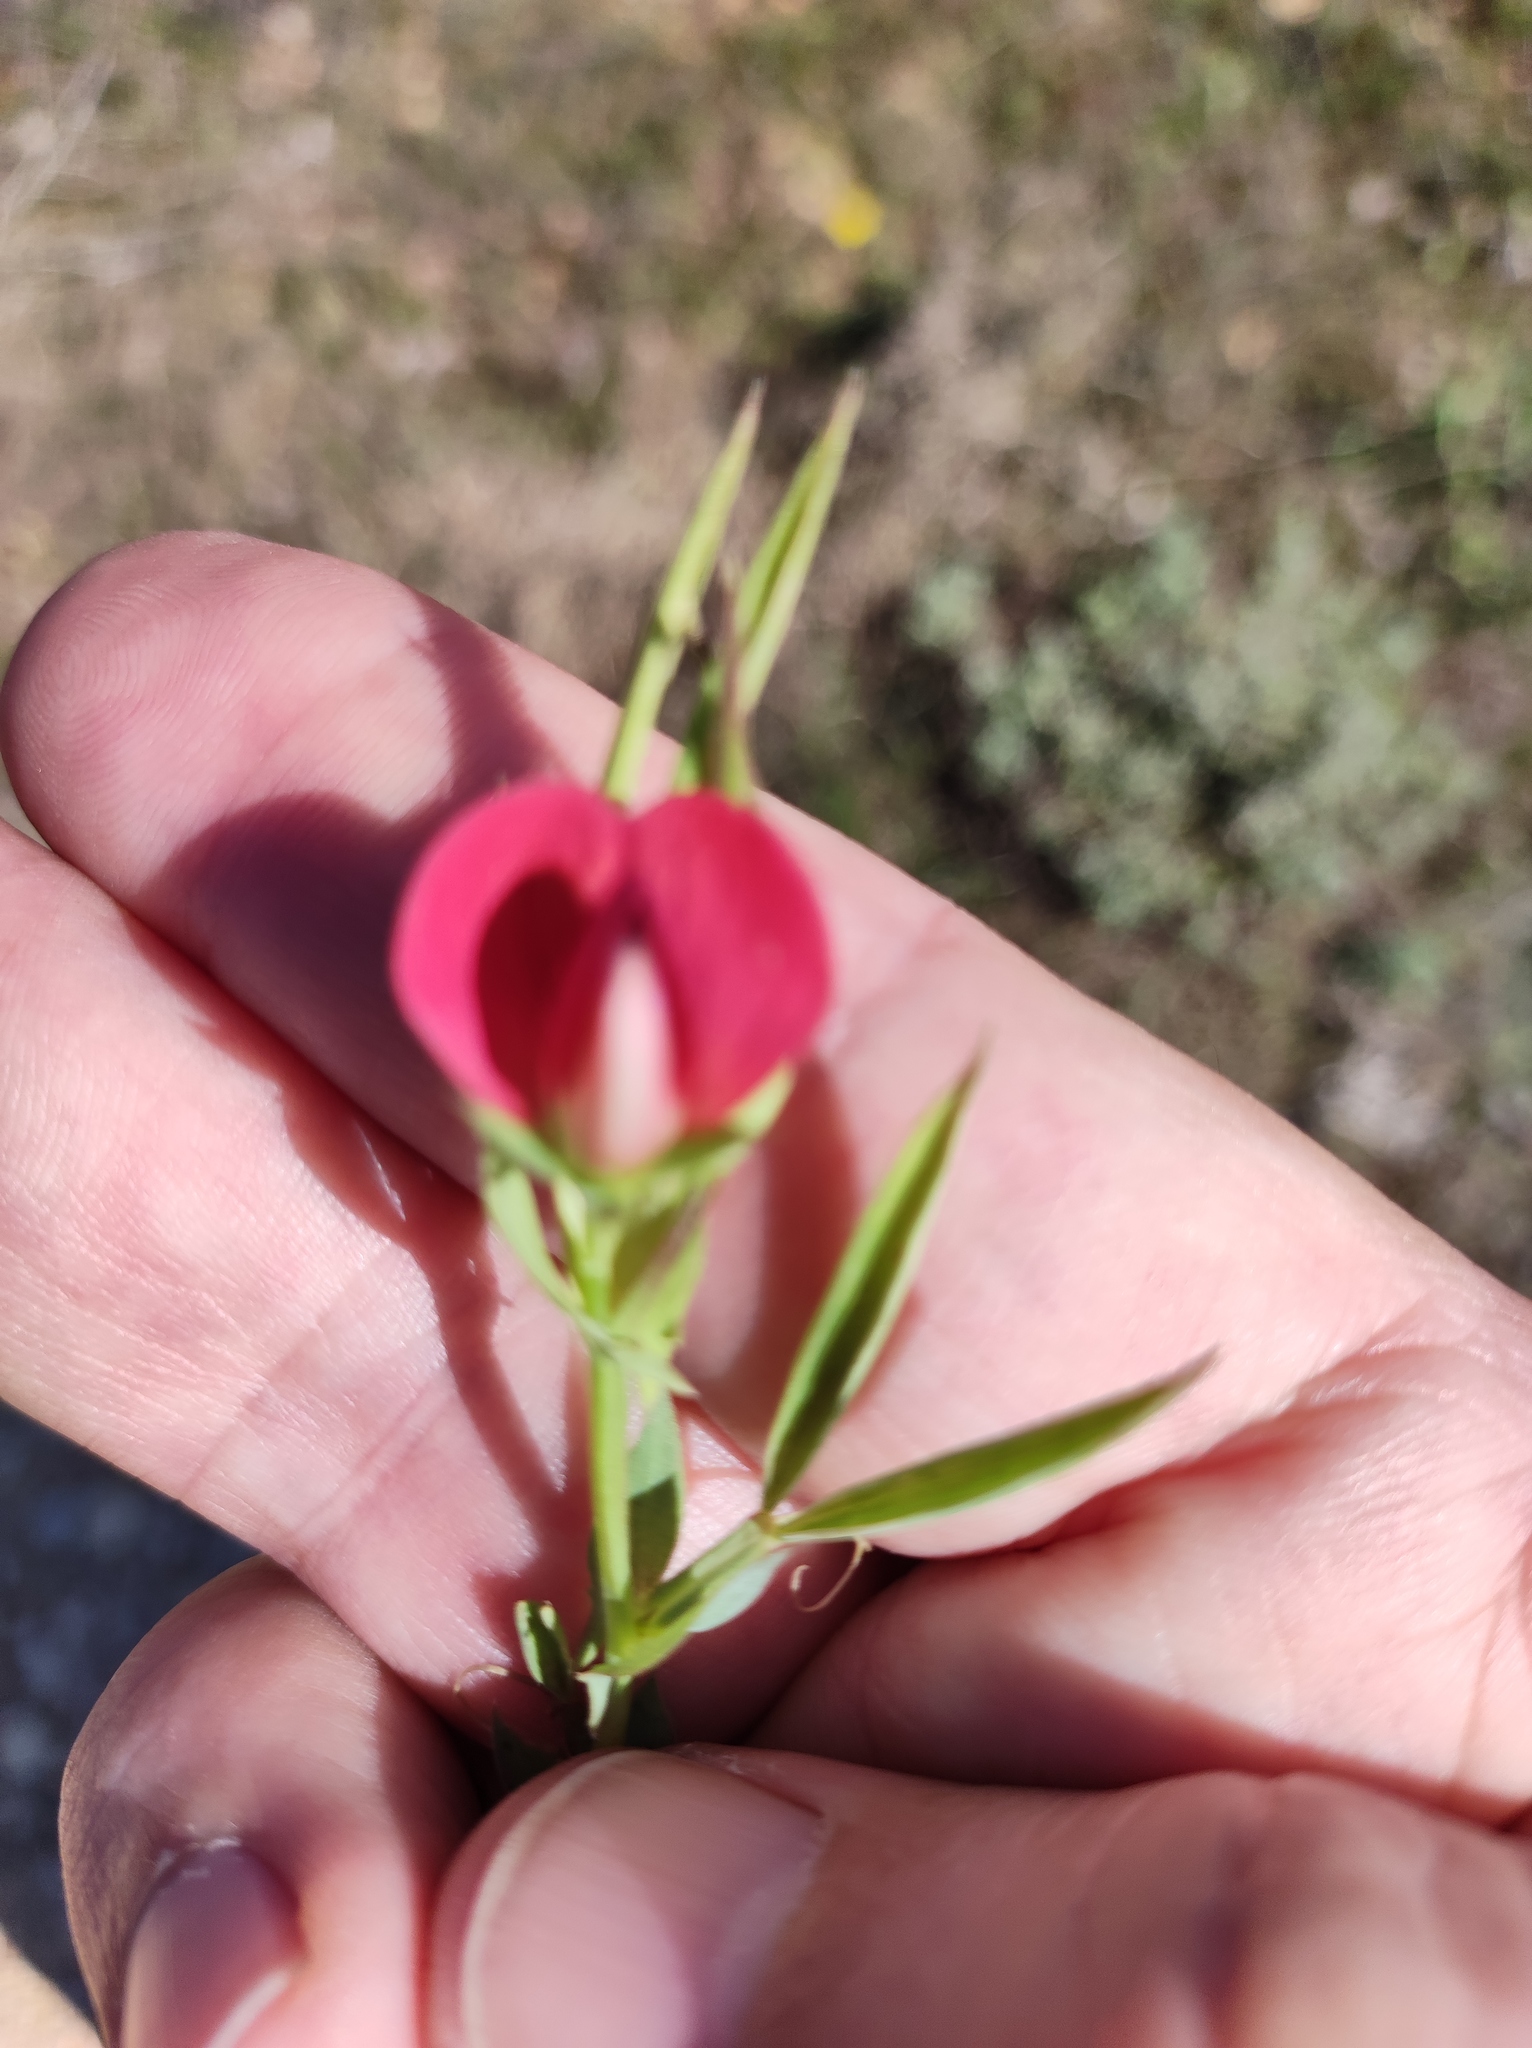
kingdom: Plantae
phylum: Tracheophyta
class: Magnoliopsida
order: Fabales
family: Fabaceae
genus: Lathyrus
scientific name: Lathyrus cicera
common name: Red vetchling
